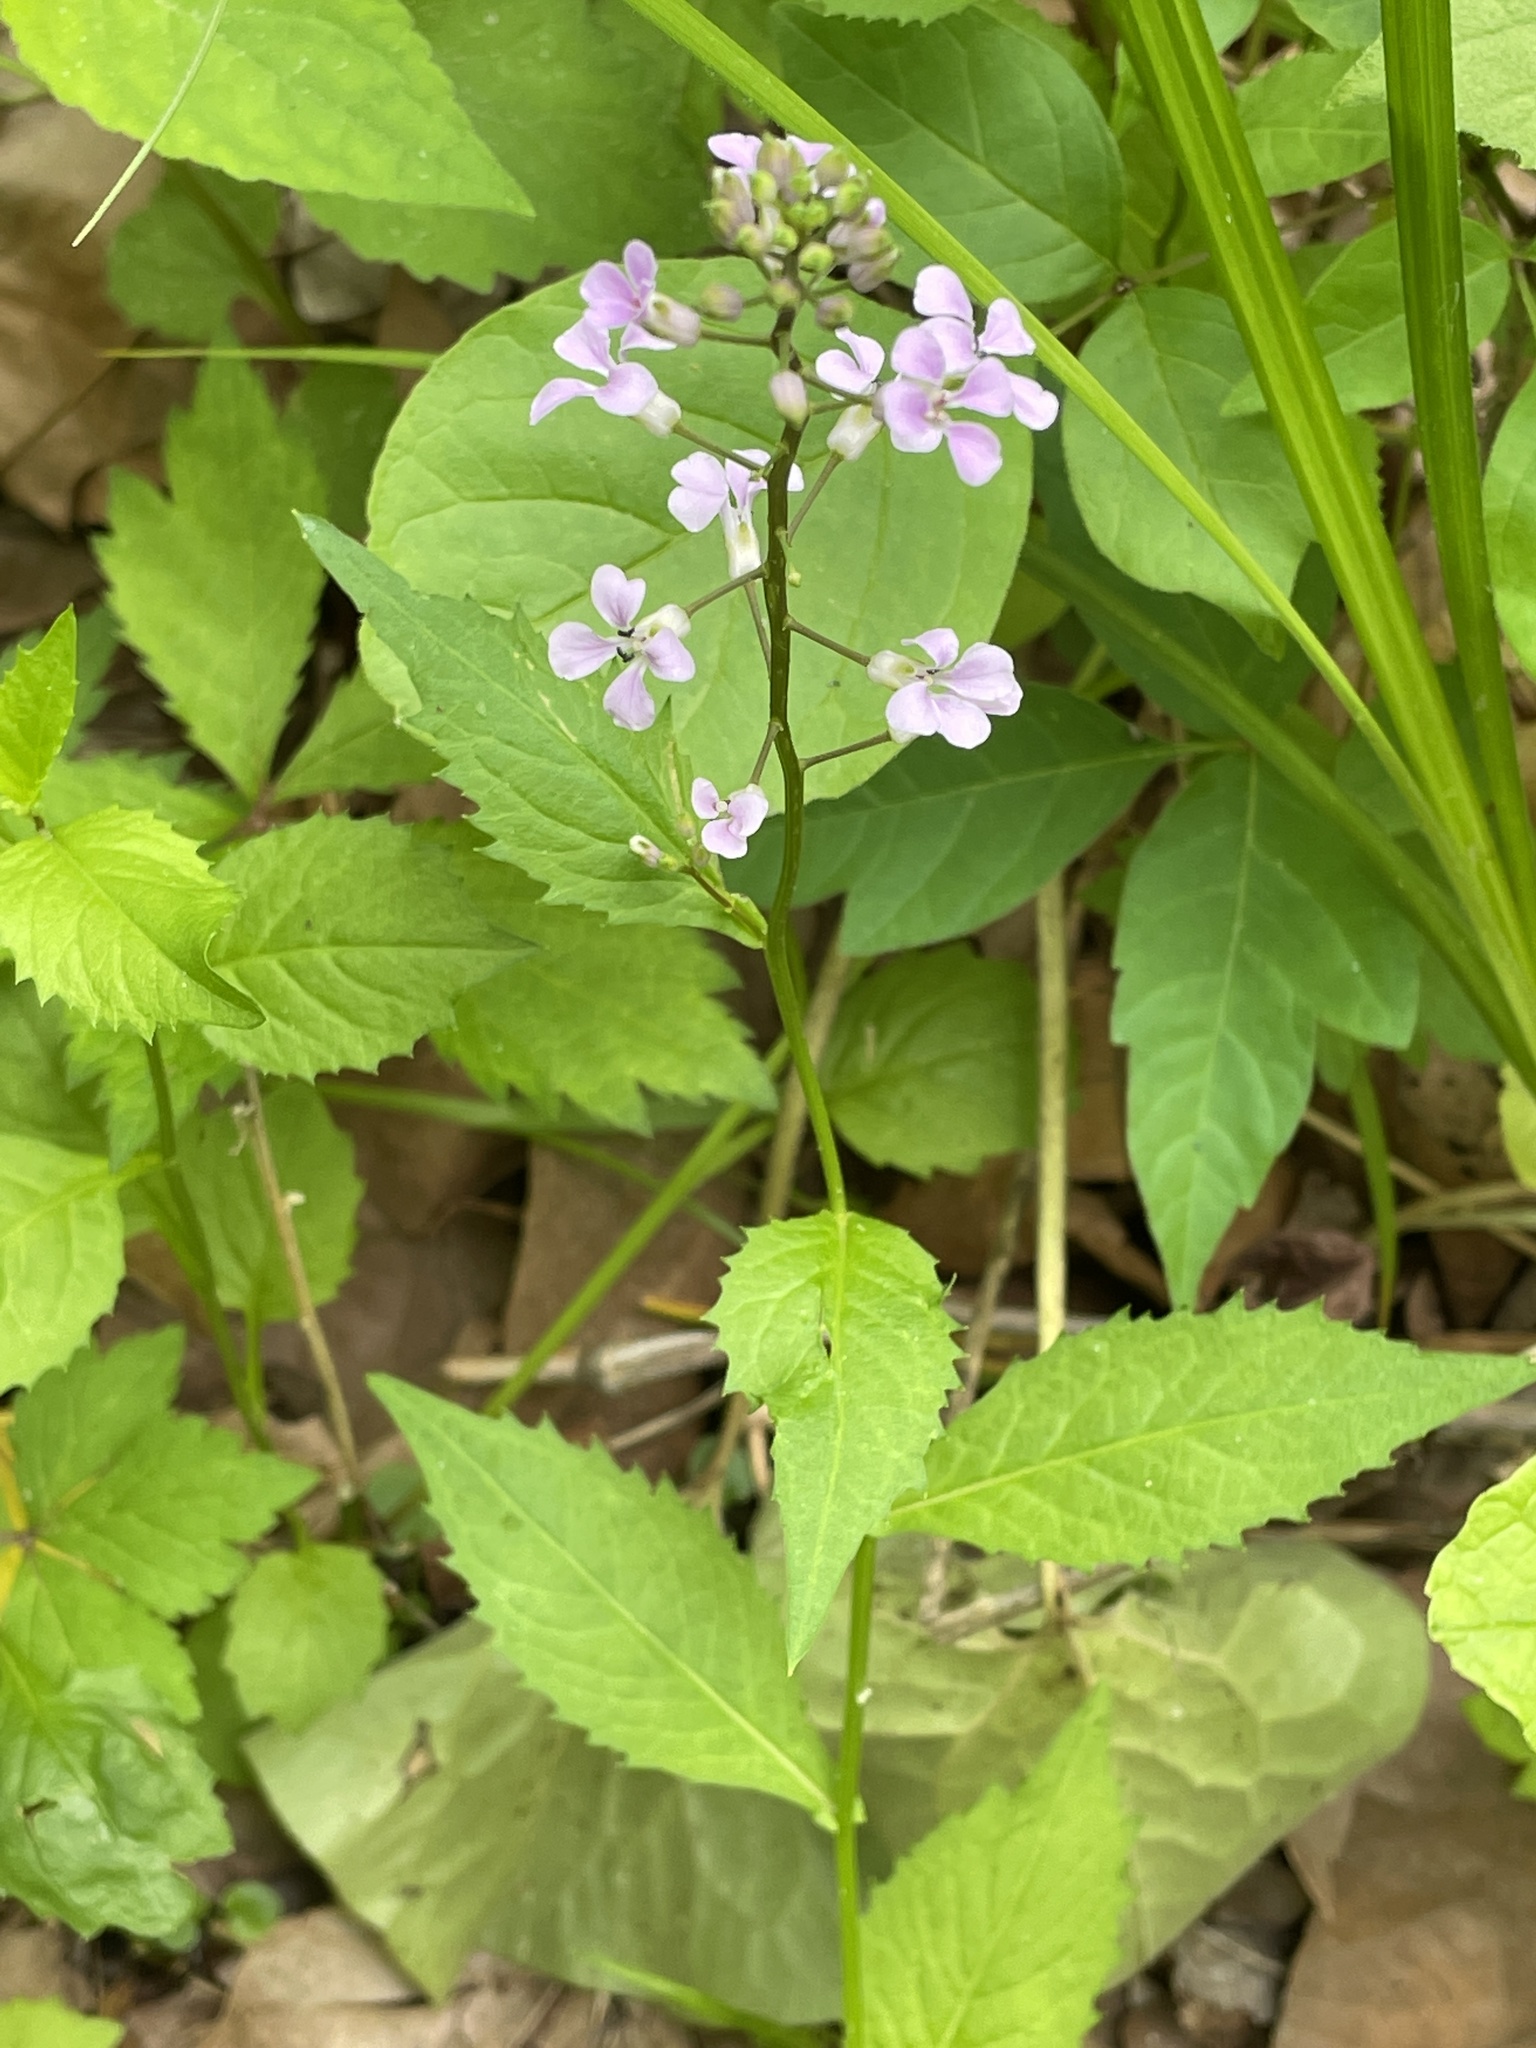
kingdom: Plantae
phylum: Tracheophyta
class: Magnoliopsida
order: Brassicales
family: Brassicaceae
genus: Iodanthus
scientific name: Iodanthus pinnatifidus
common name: Violet rocket
